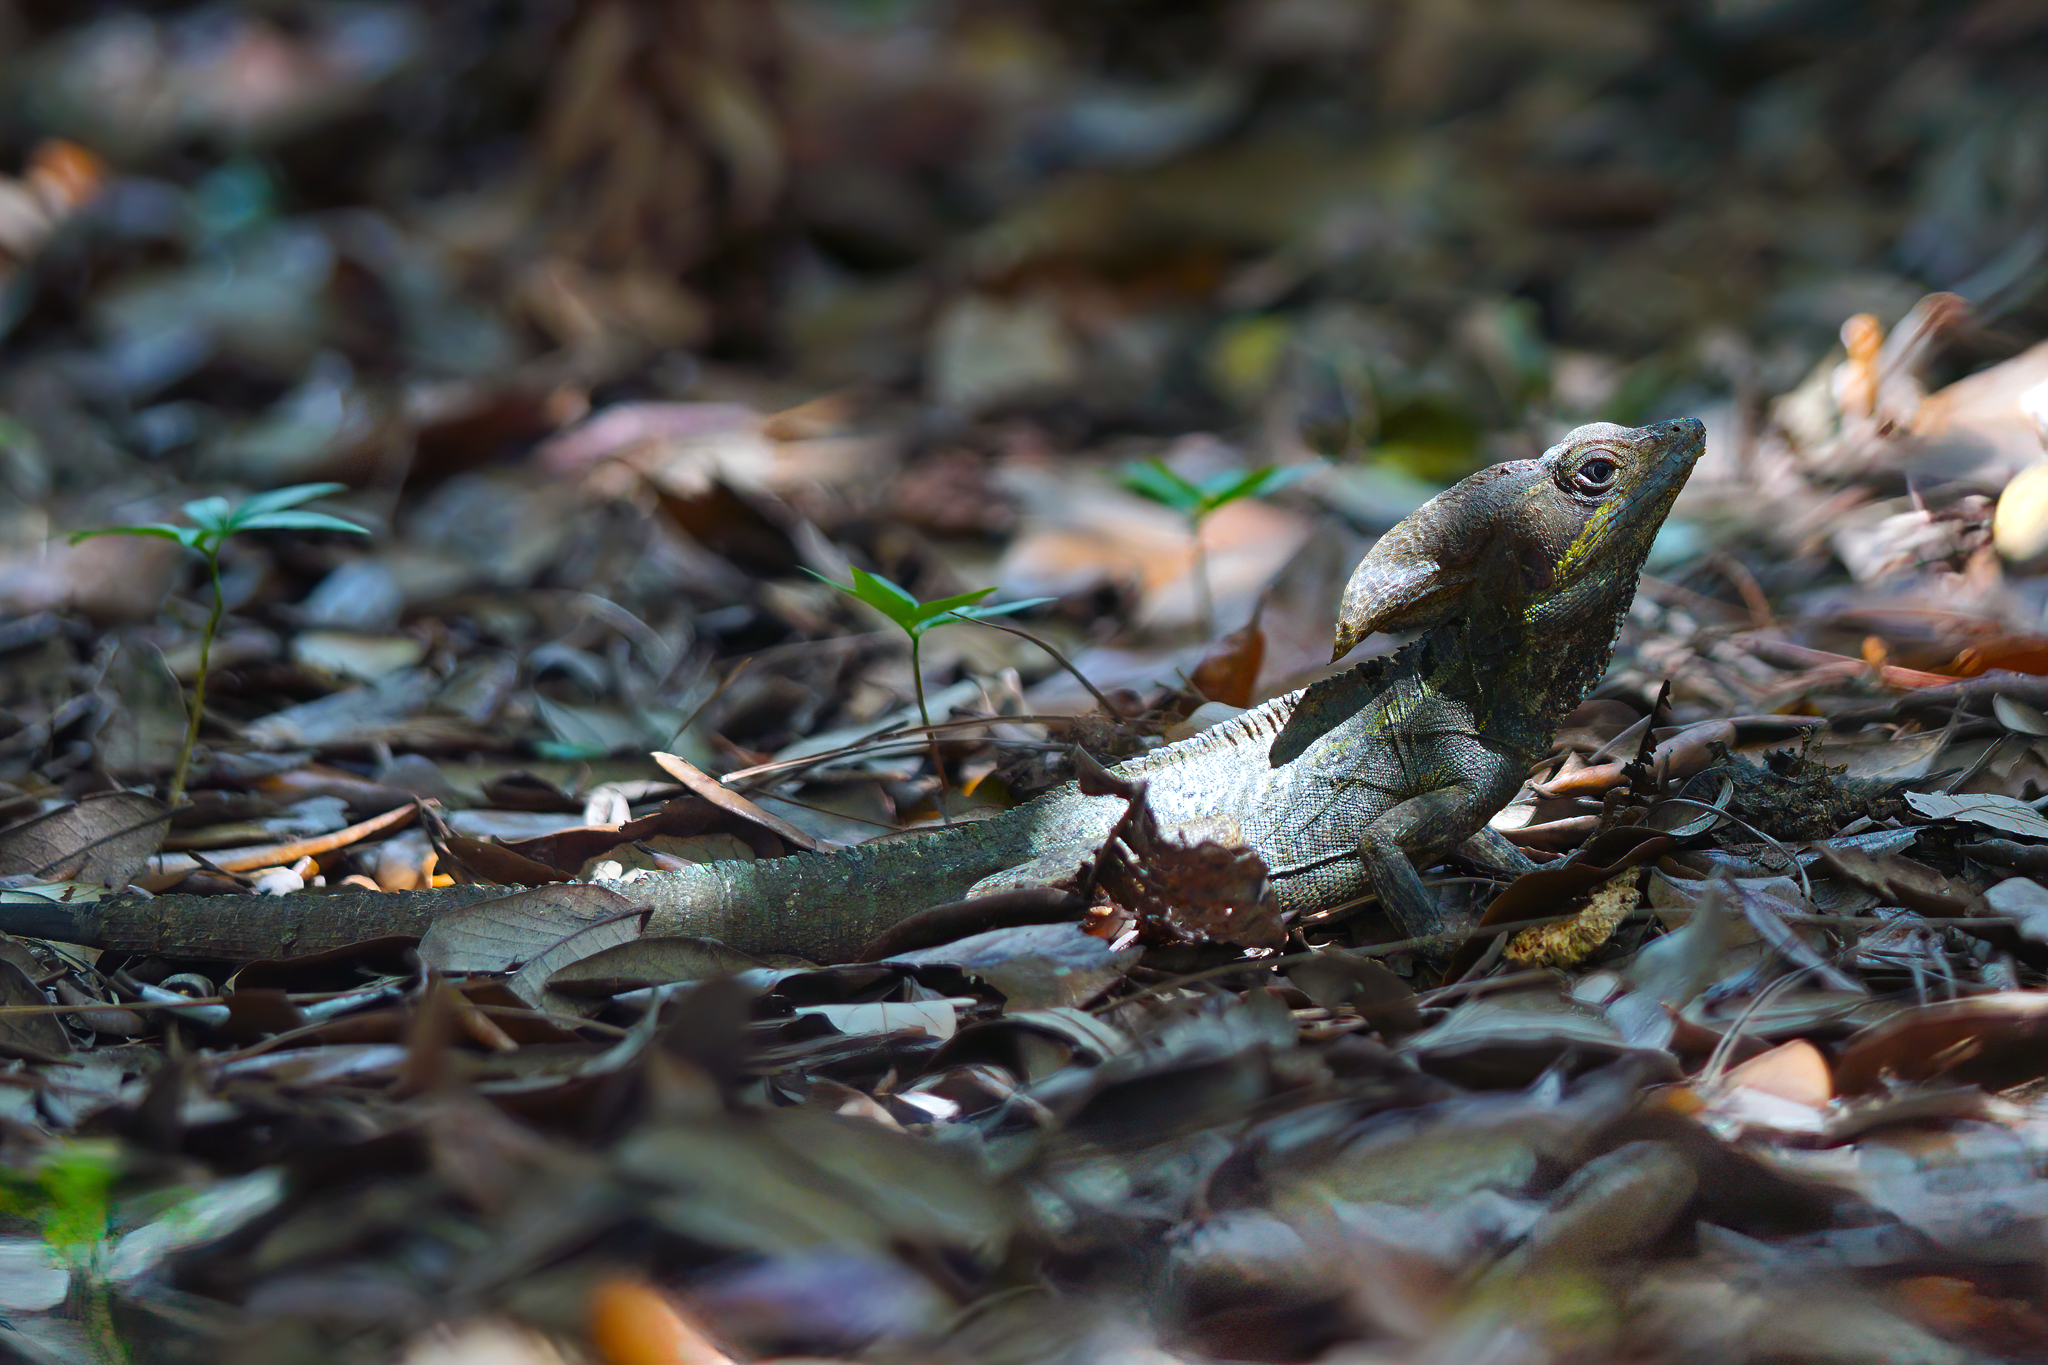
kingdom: Animalia
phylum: Chordata
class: Squamata
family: Corytophanidae
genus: Basiliscus
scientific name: Basiliscus vittatus
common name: Brown basilisk
